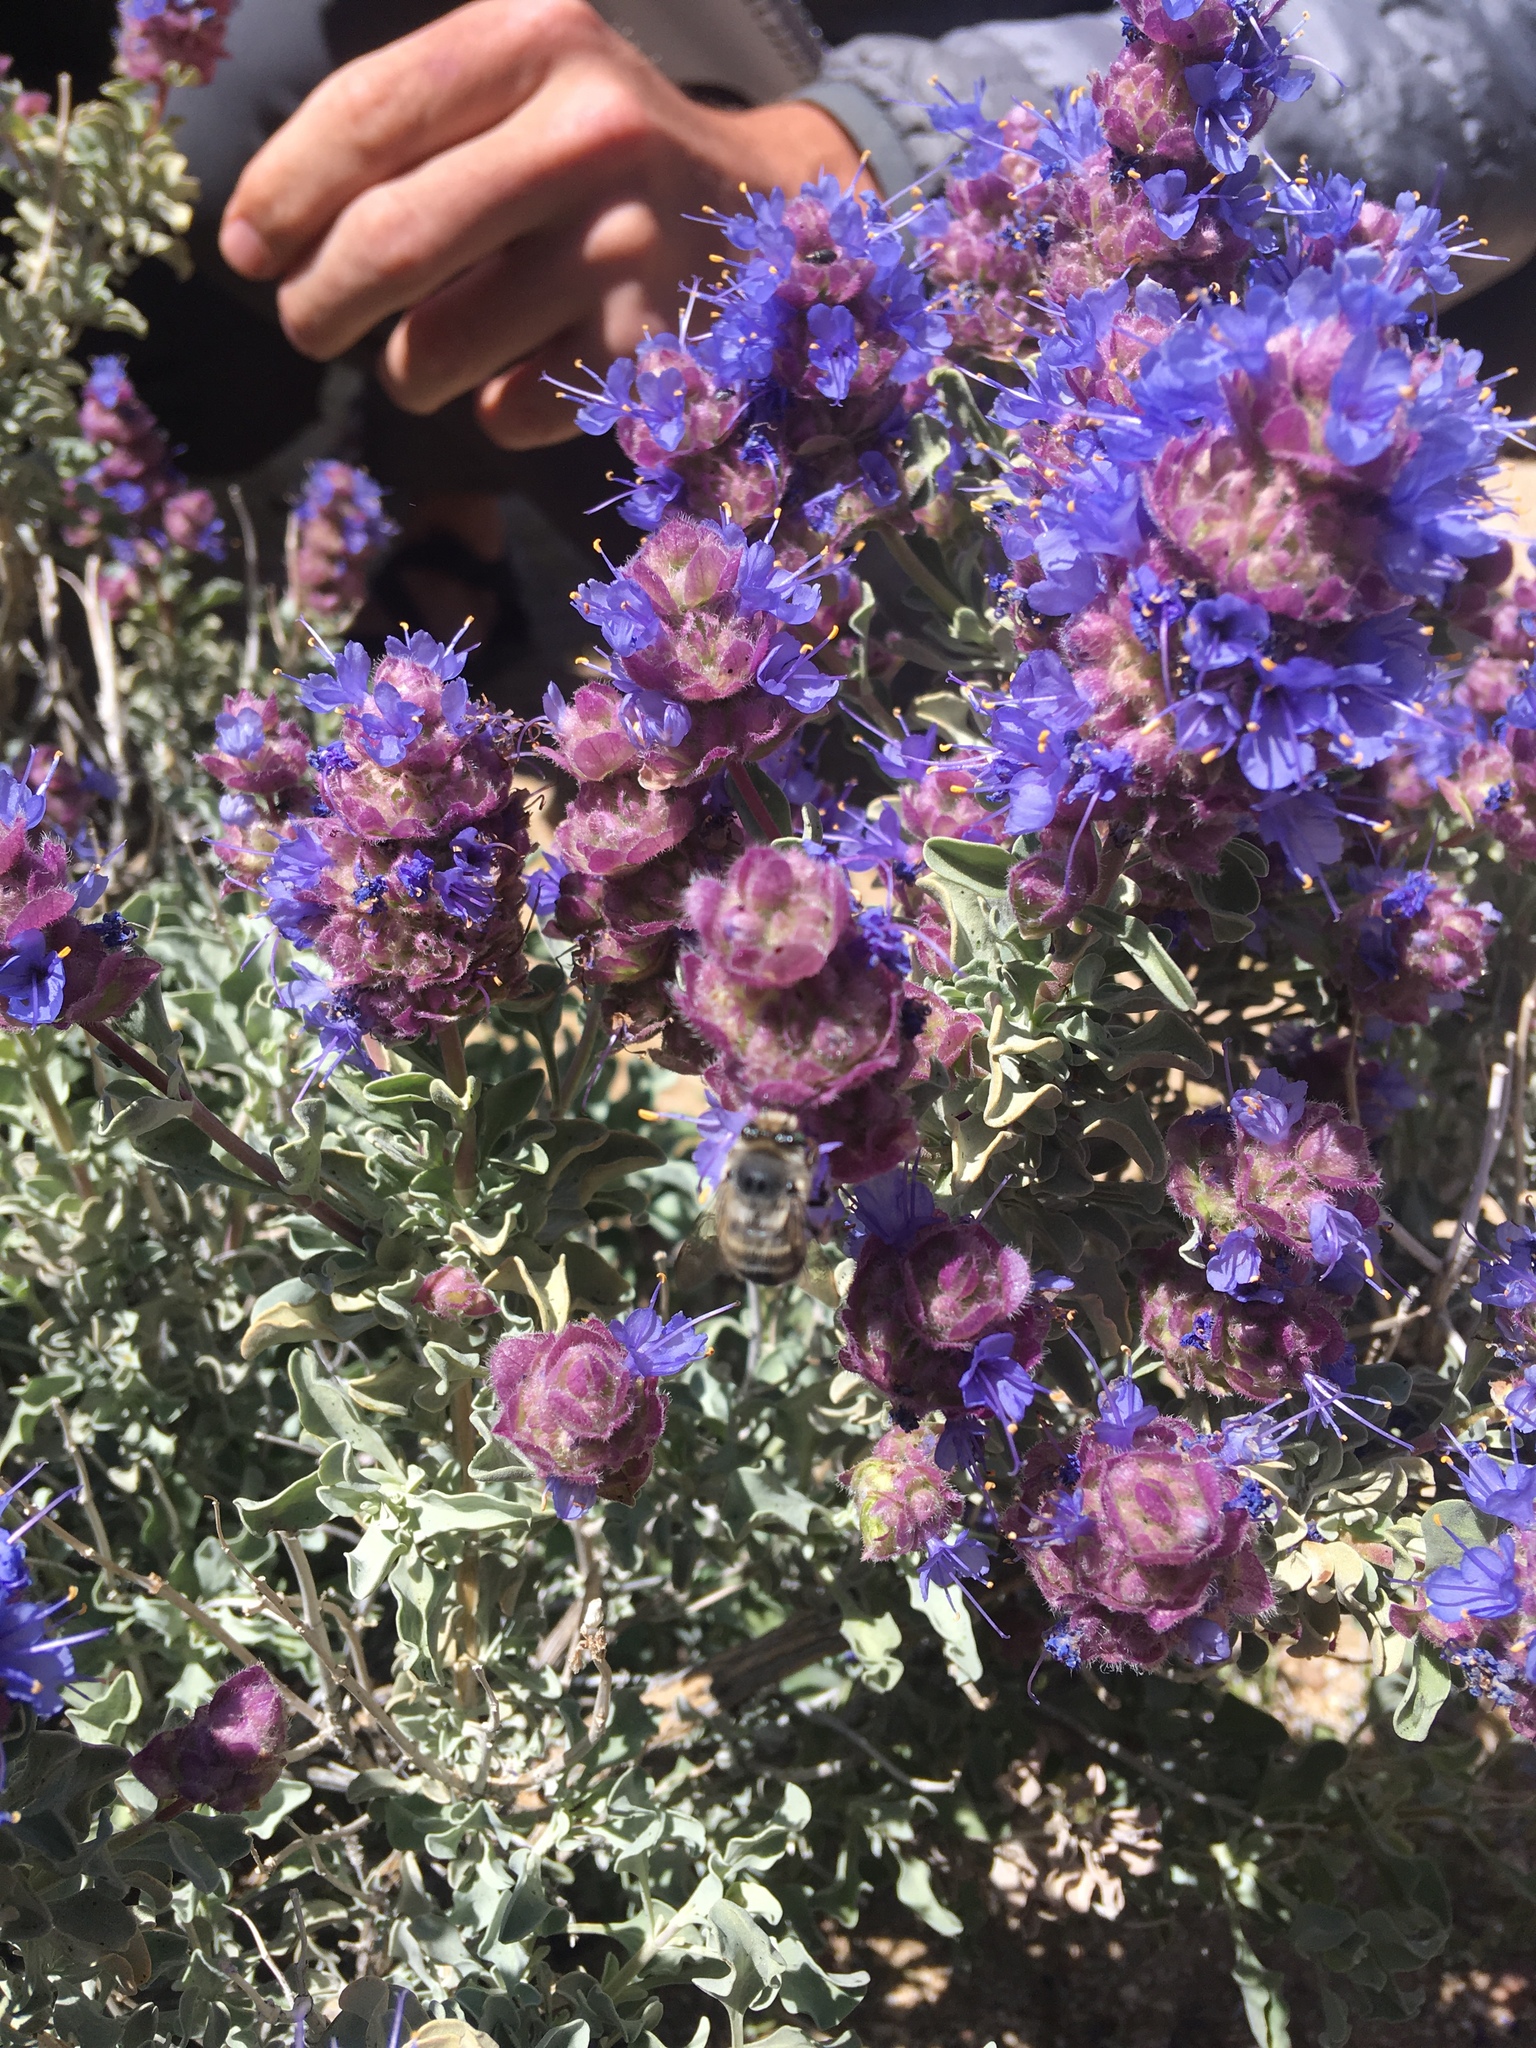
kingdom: Plantae
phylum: Tracheophyta
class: Magnoliopsida
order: Lamiales
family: Lamiaceae
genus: Salvia
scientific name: Salvia dorrii
